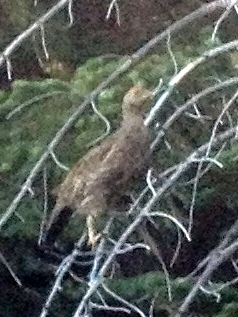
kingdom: Animalia
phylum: Chordata
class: Aves
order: Galliformes
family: Phasianidae
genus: Dendragapus
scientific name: Dendragapus fuliginosus
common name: Sooty grouse
